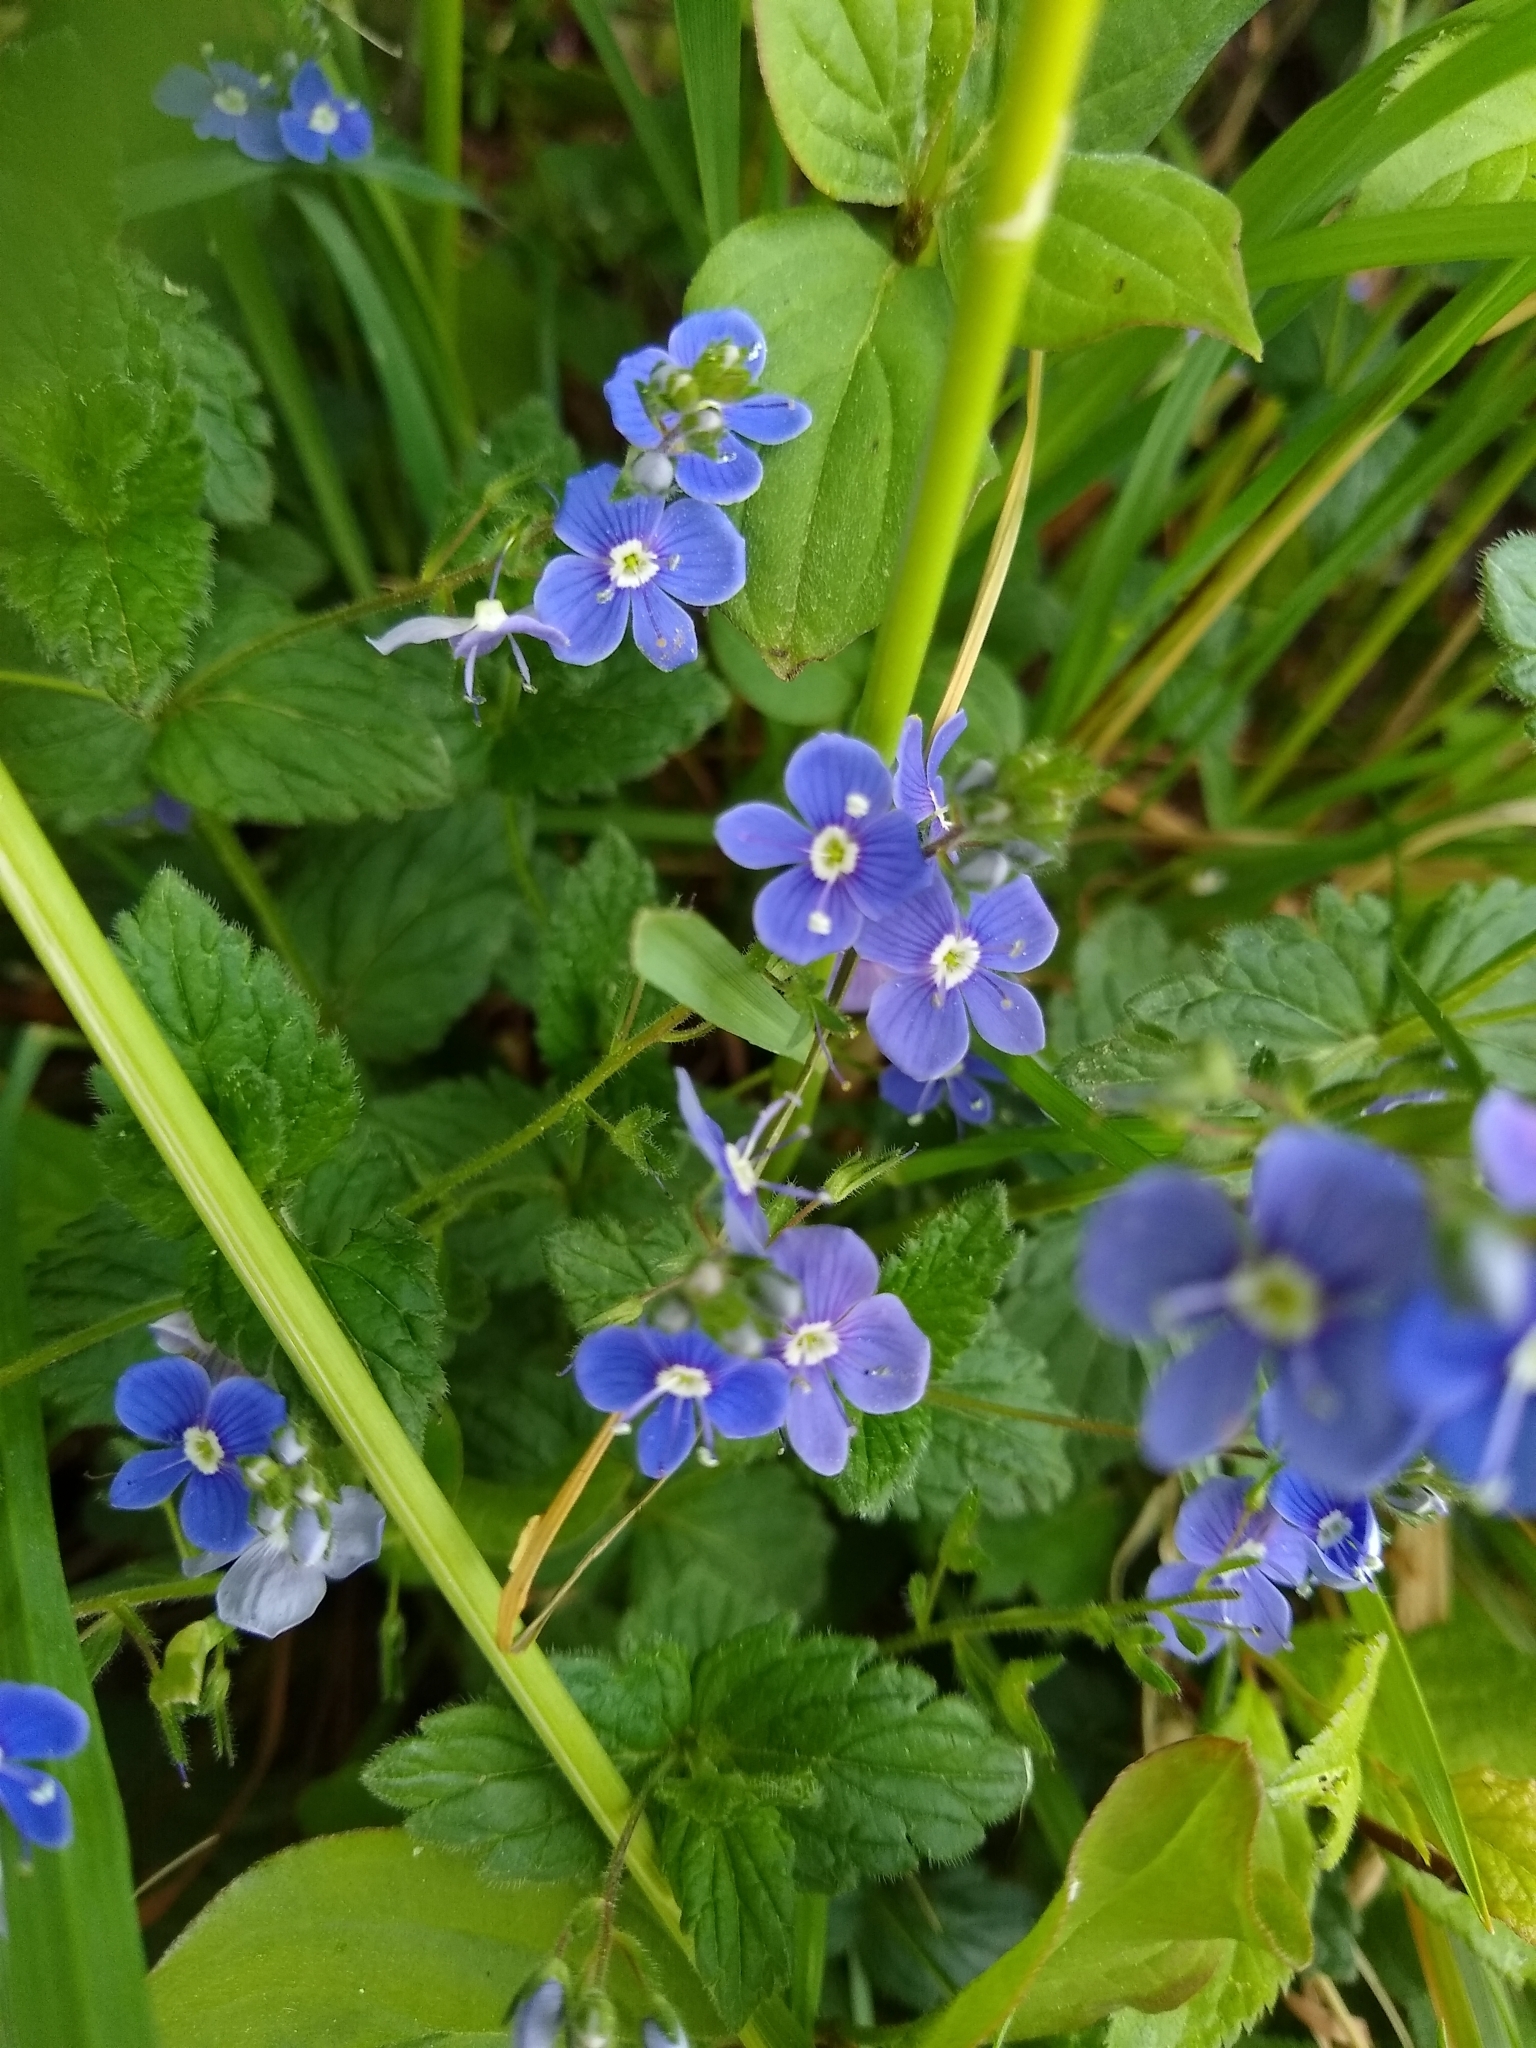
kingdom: Plantae
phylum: Tracheophyta
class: Magnoliopsida
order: Lamiales
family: Plantaginaceae
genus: Veronica
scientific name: Veronica chamaedrys
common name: Germander speedwell
